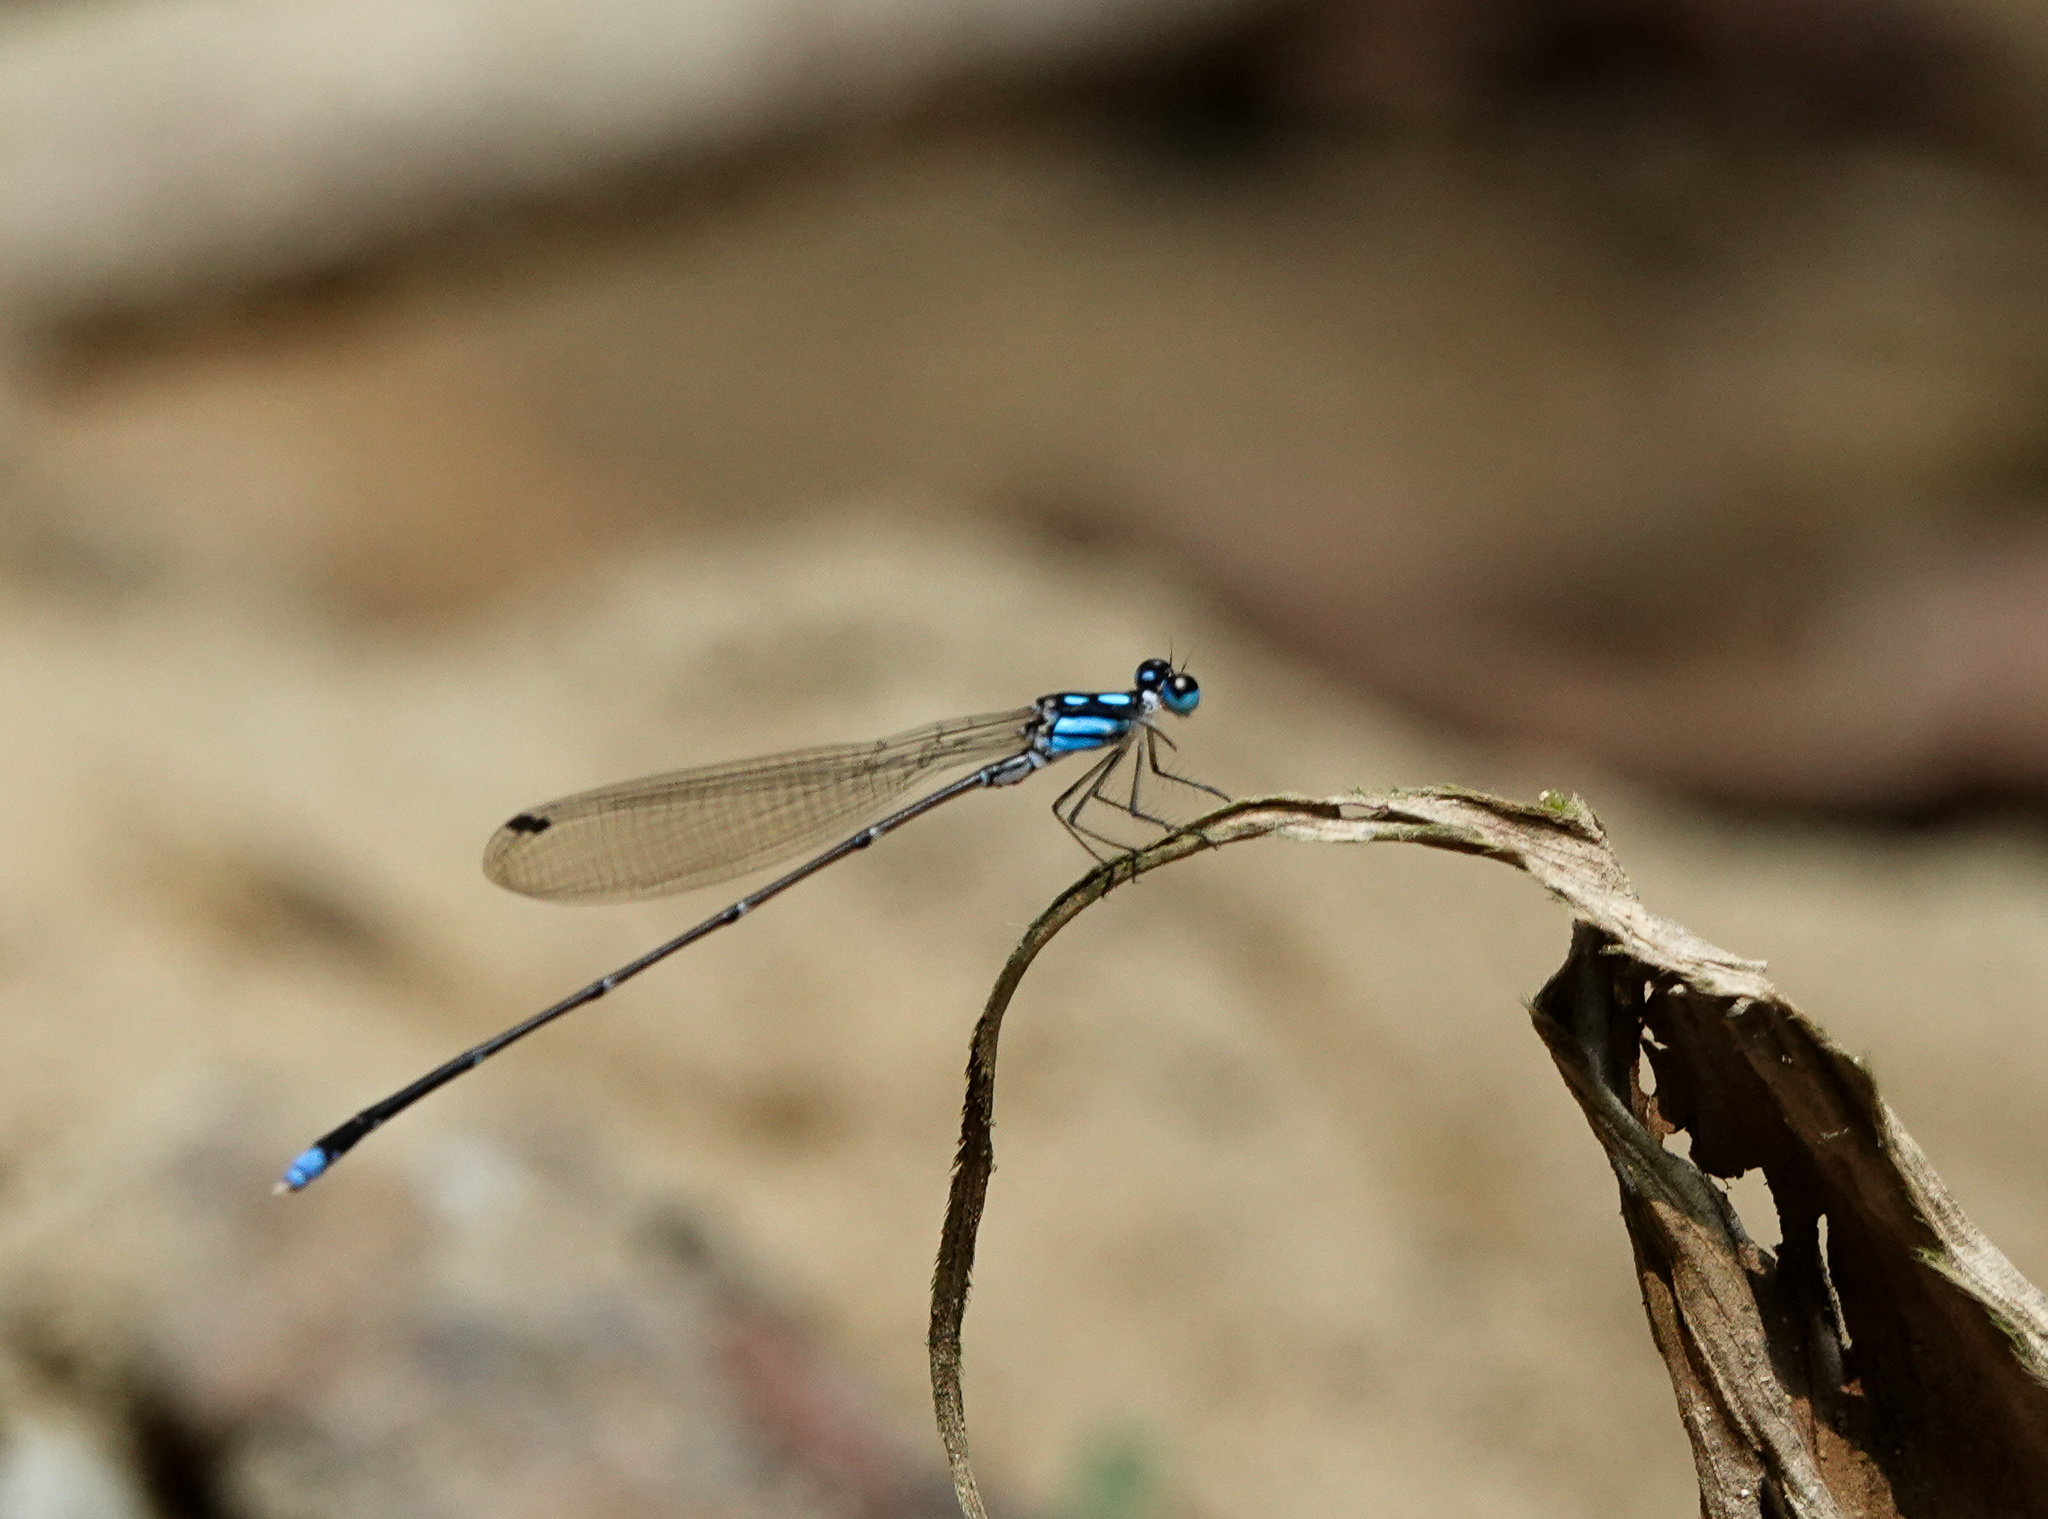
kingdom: Animalia
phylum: Arthropoda
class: Insecta
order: Odonata
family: Platycnemididae
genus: Coeliccia
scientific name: Coeliccia didyma
